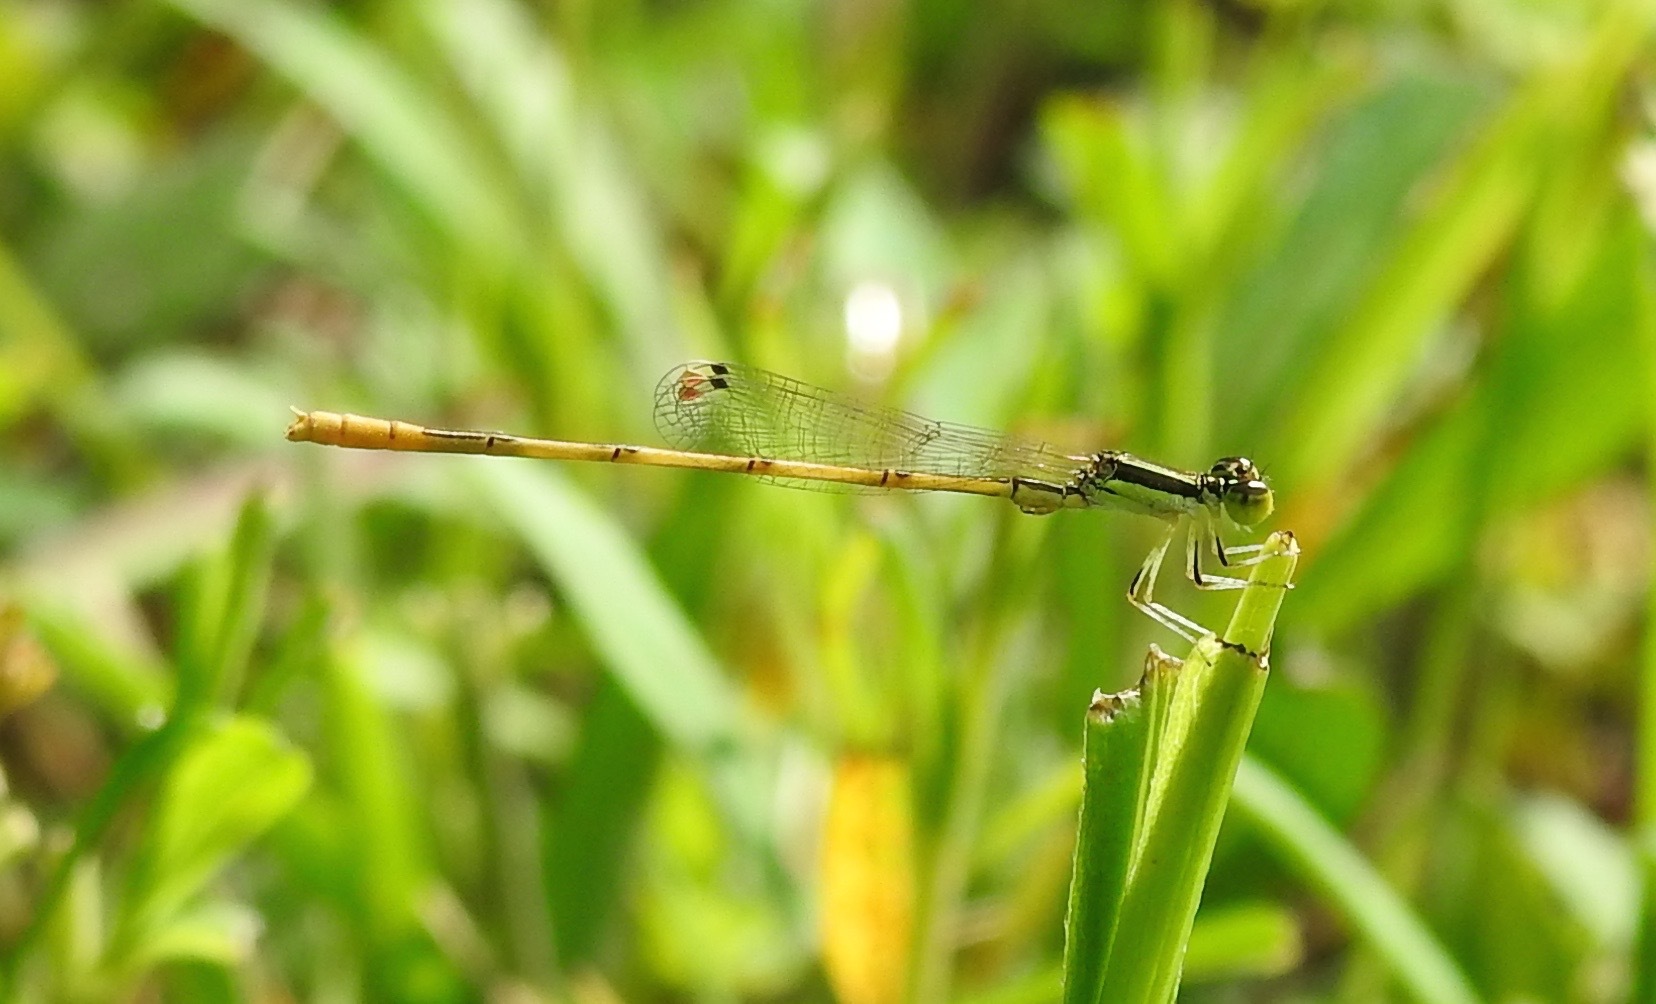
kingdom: Animalia
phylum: Arthropoda
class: Insecta
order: Odonata
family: Coenagrionidae
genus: Ischnura
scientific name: Ischnura hastata
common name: Citrine forktail
